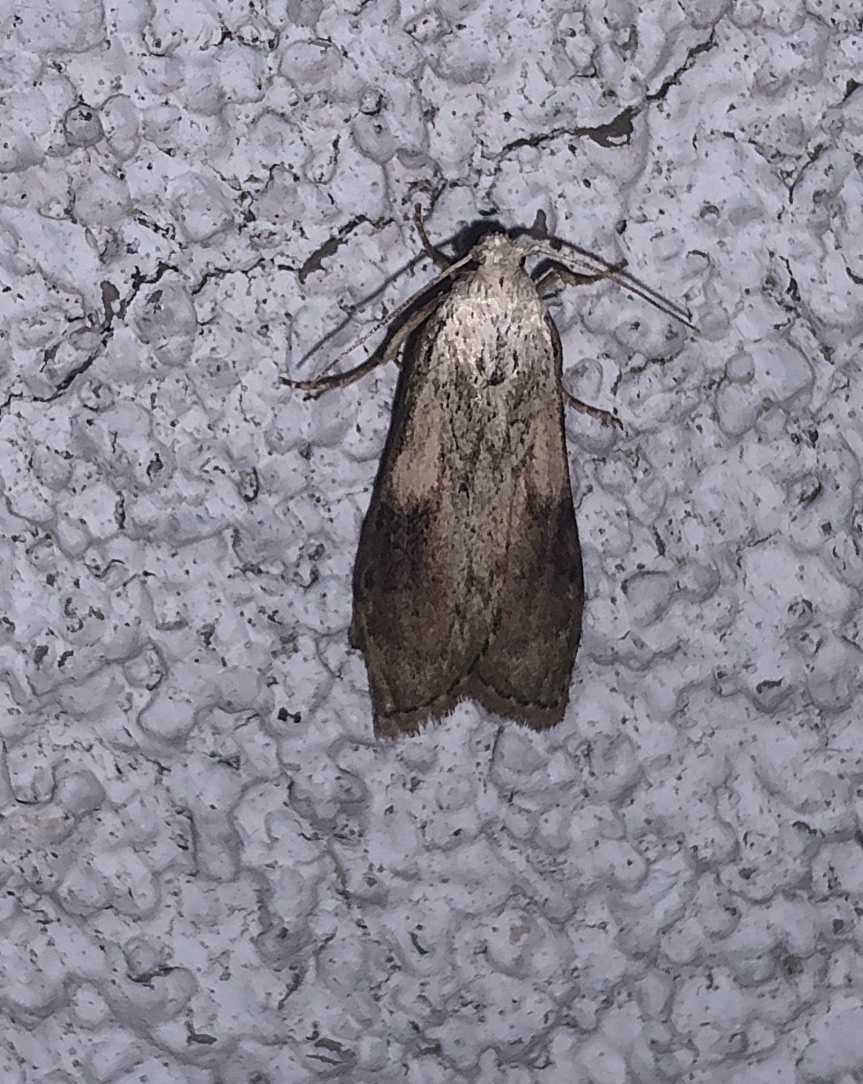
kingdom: Animalia
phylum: Arthropoda
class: Insecta
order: Lepidoptera
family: Pyralidae
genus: Aphomia
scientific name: Aphomia sociella
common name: Bee moth
